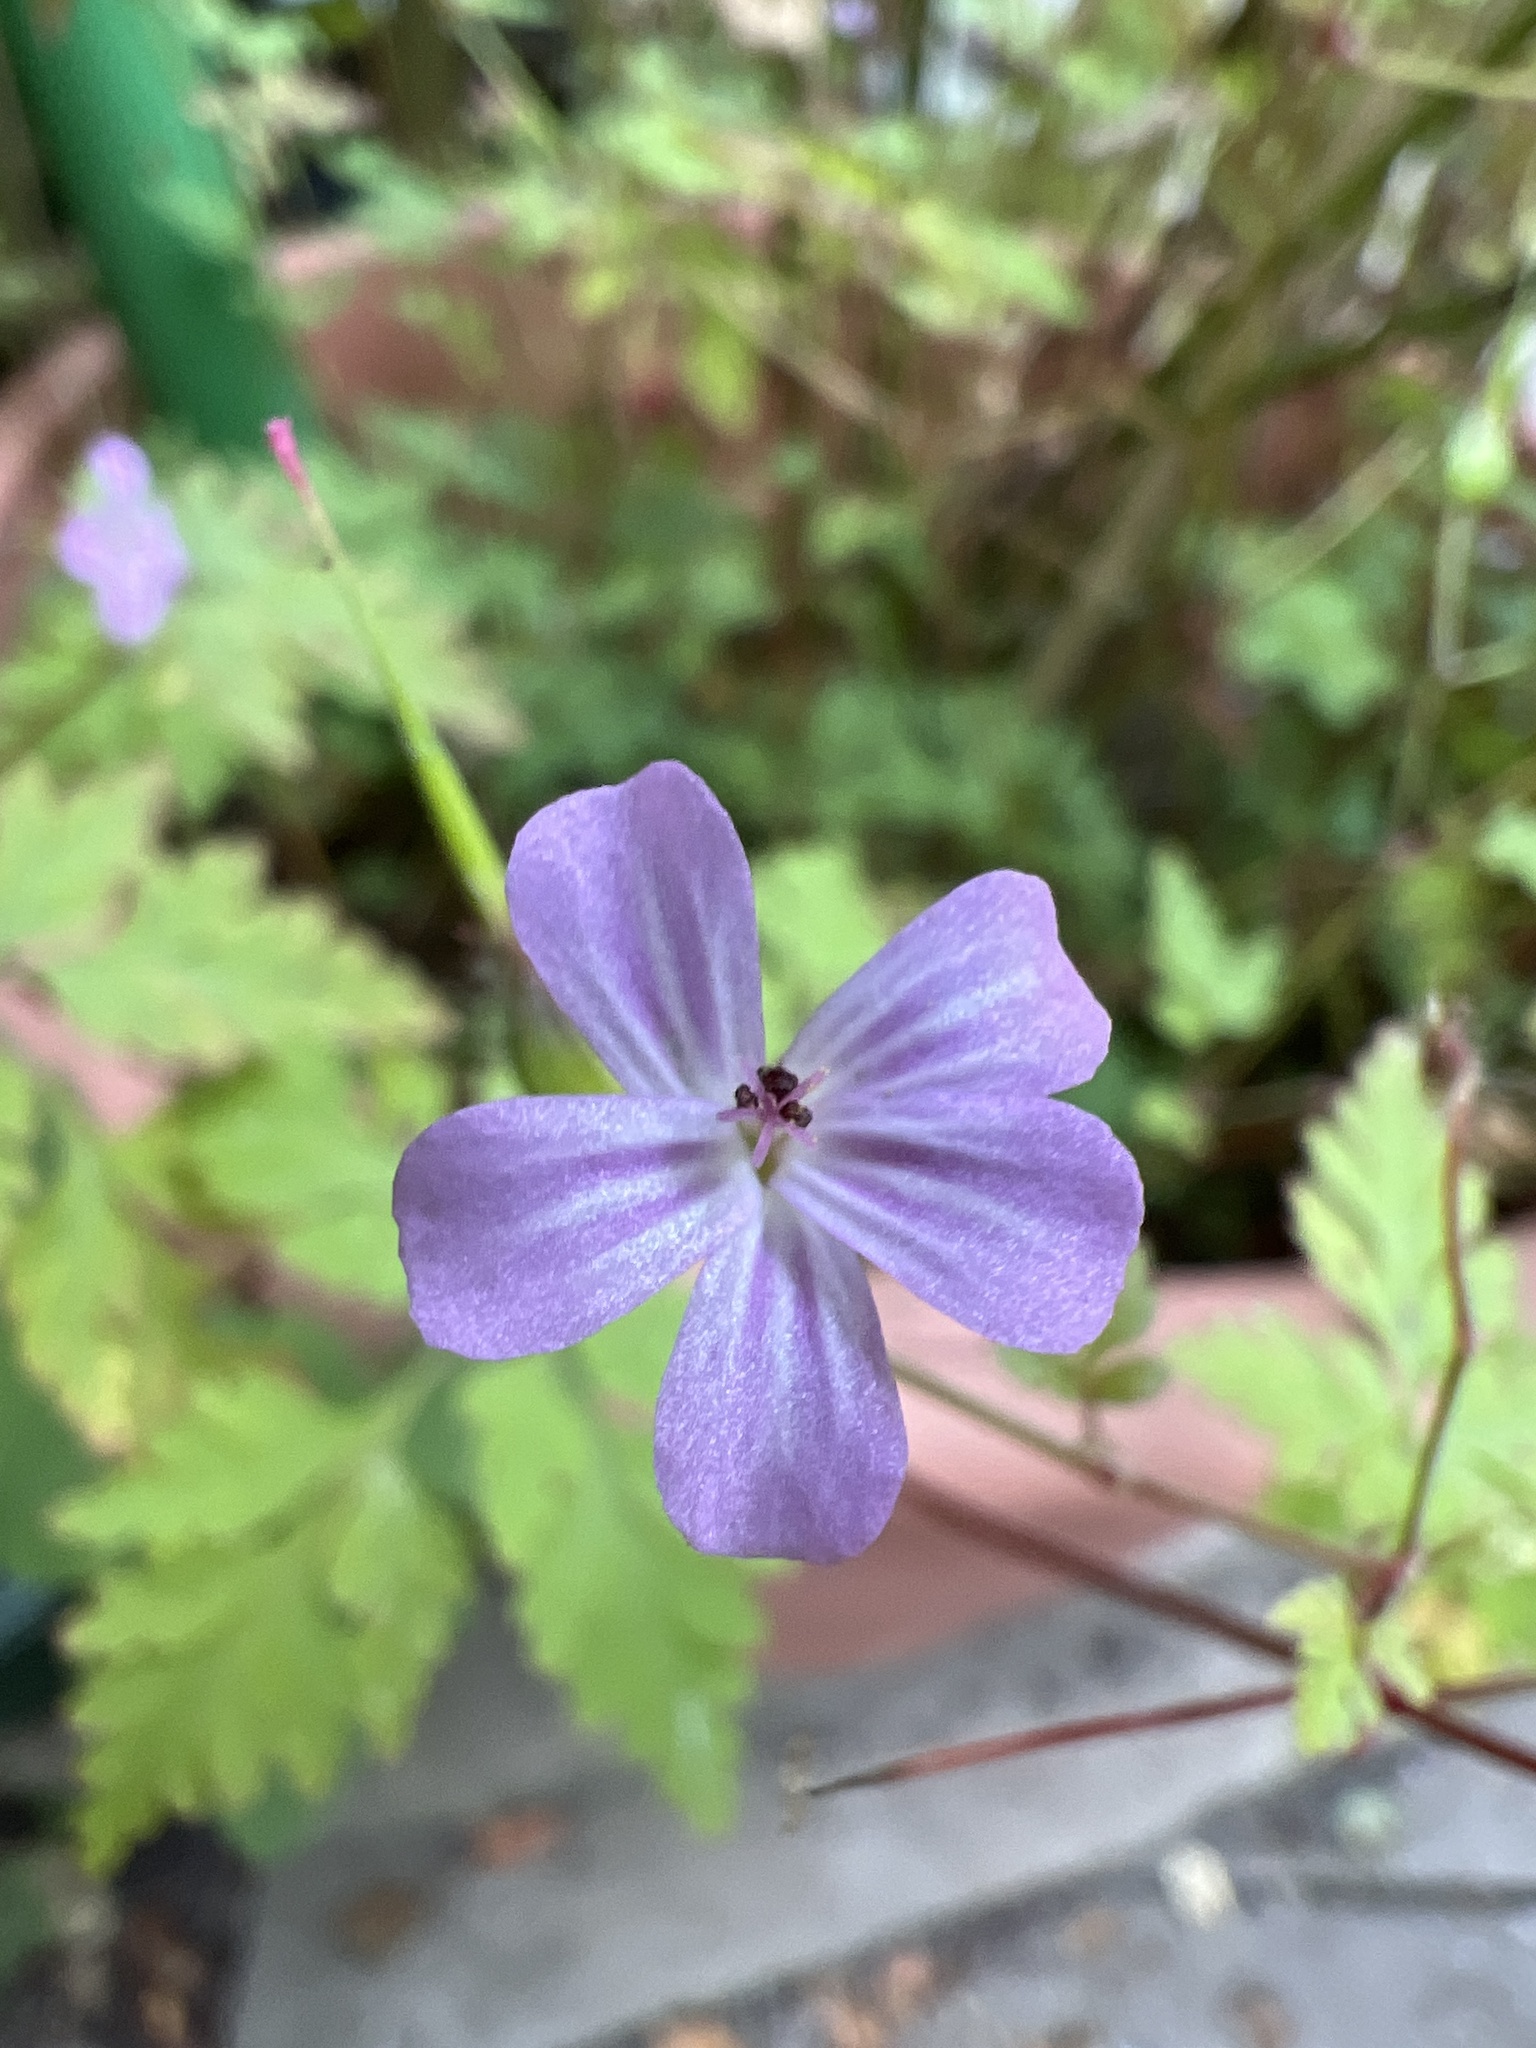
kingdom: Plantae
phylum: Tracheophyta
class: Magnoliopsida
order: Geraniales
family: Geraniaceae
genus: Geranium
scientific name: Geranium robertianum
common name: Herb-robert
